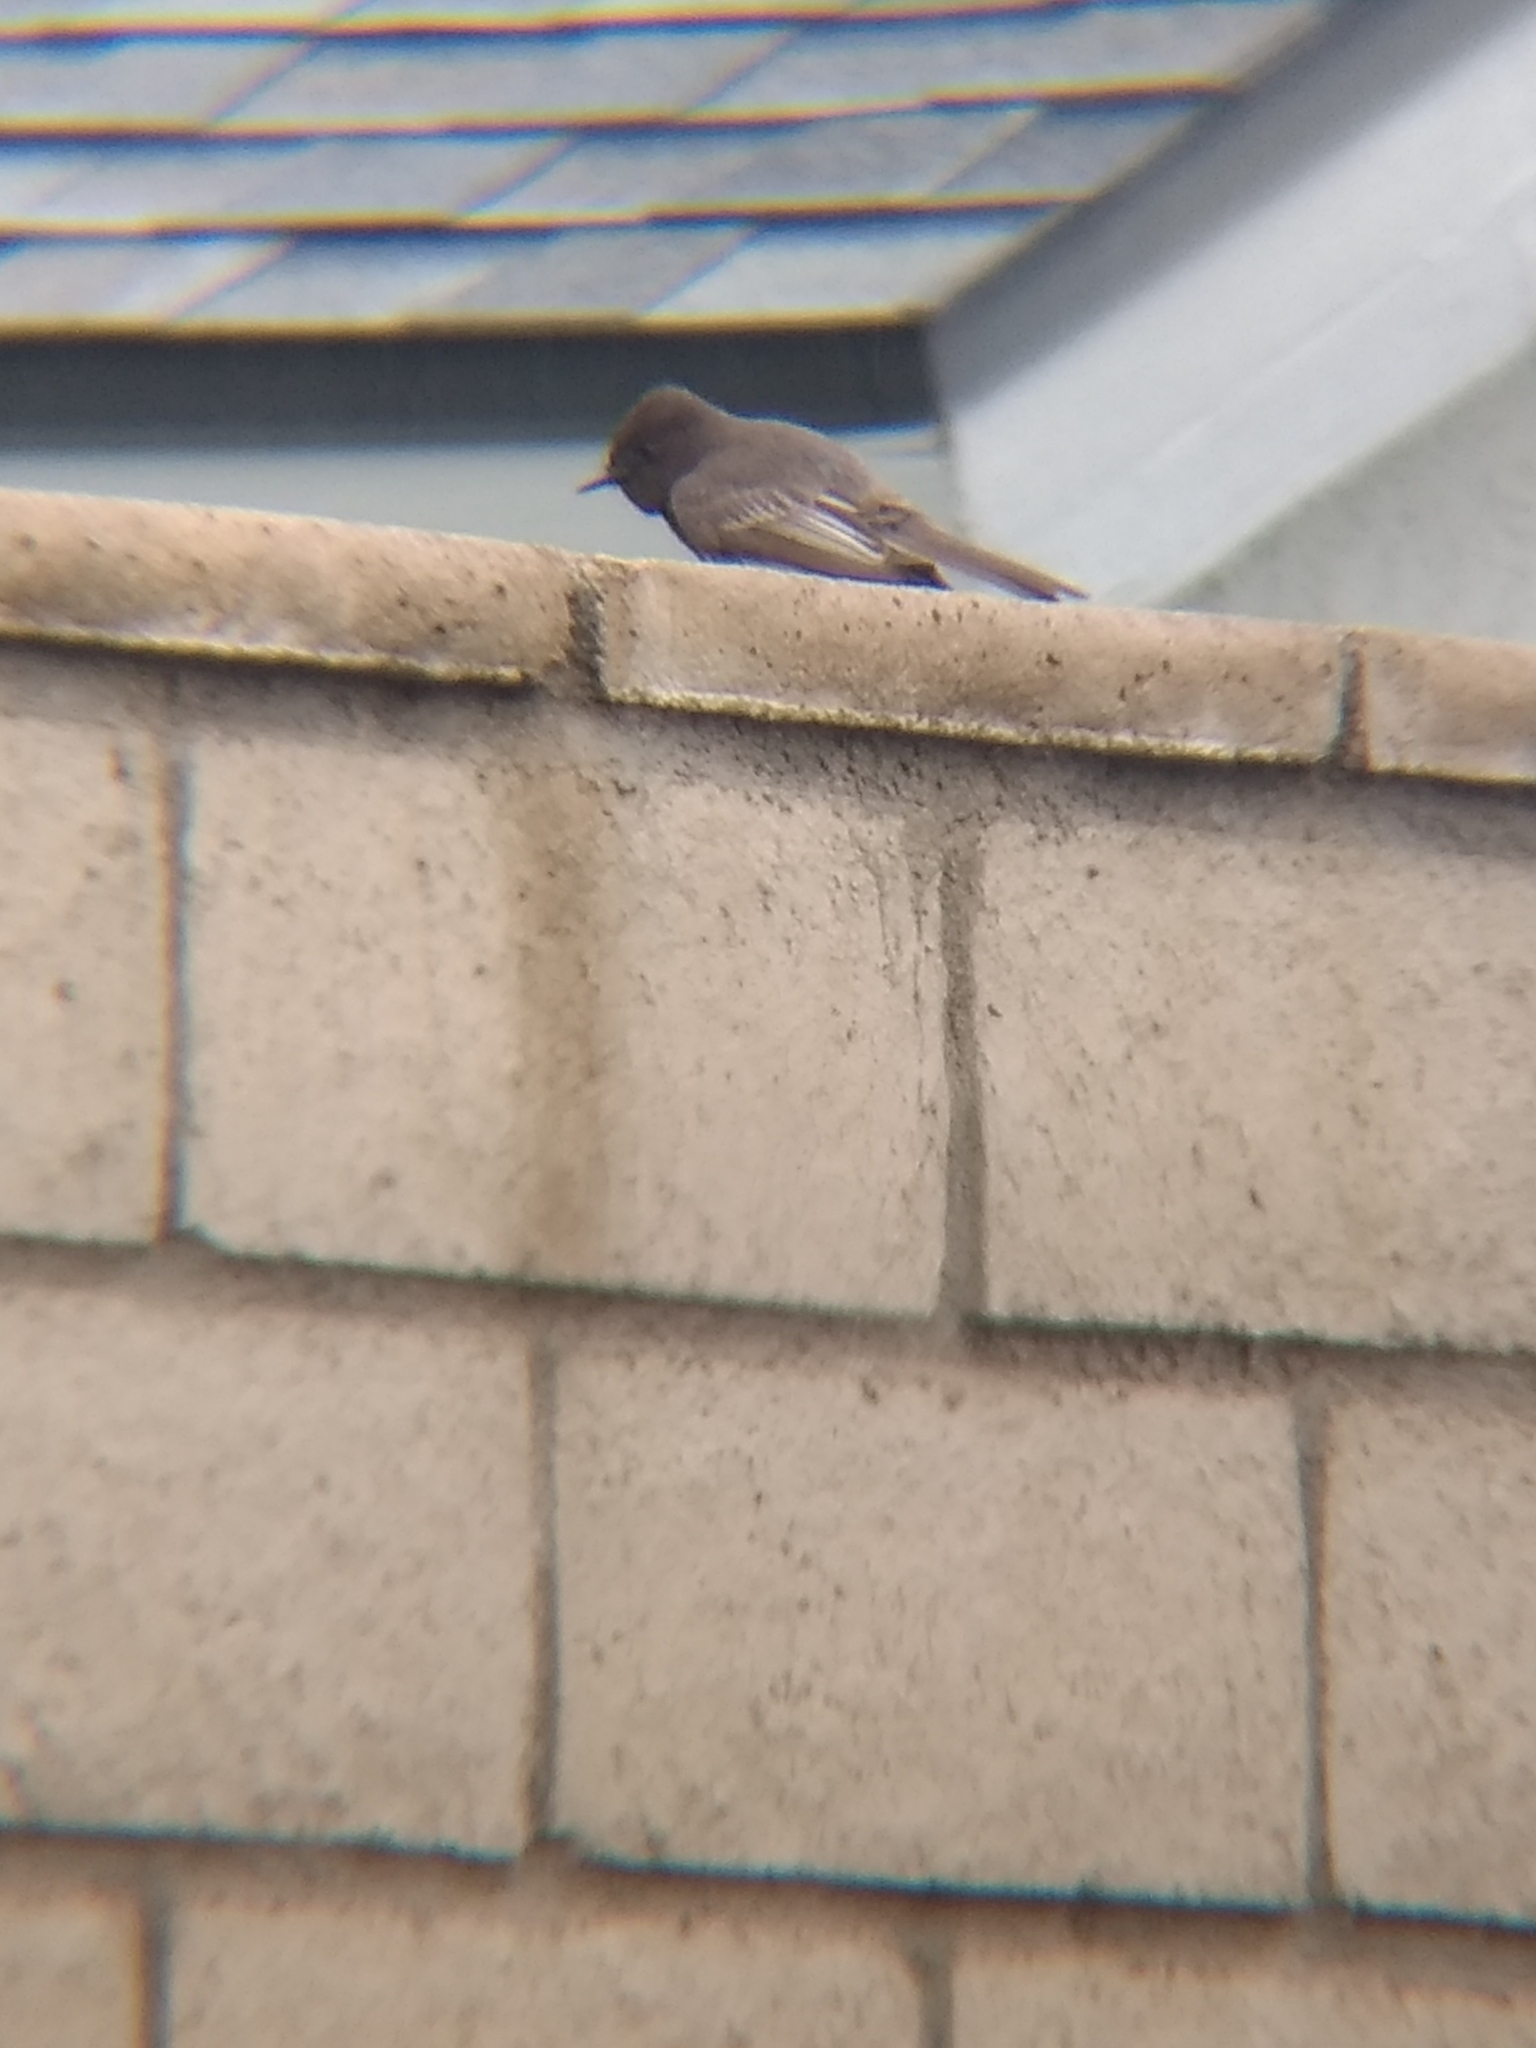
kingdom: Animalia
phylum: Chordata
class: Aves
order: Passeriformes
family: Tyrannidae
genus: Sayornis
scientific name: Sayornis nigricans
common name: Black phoebe
